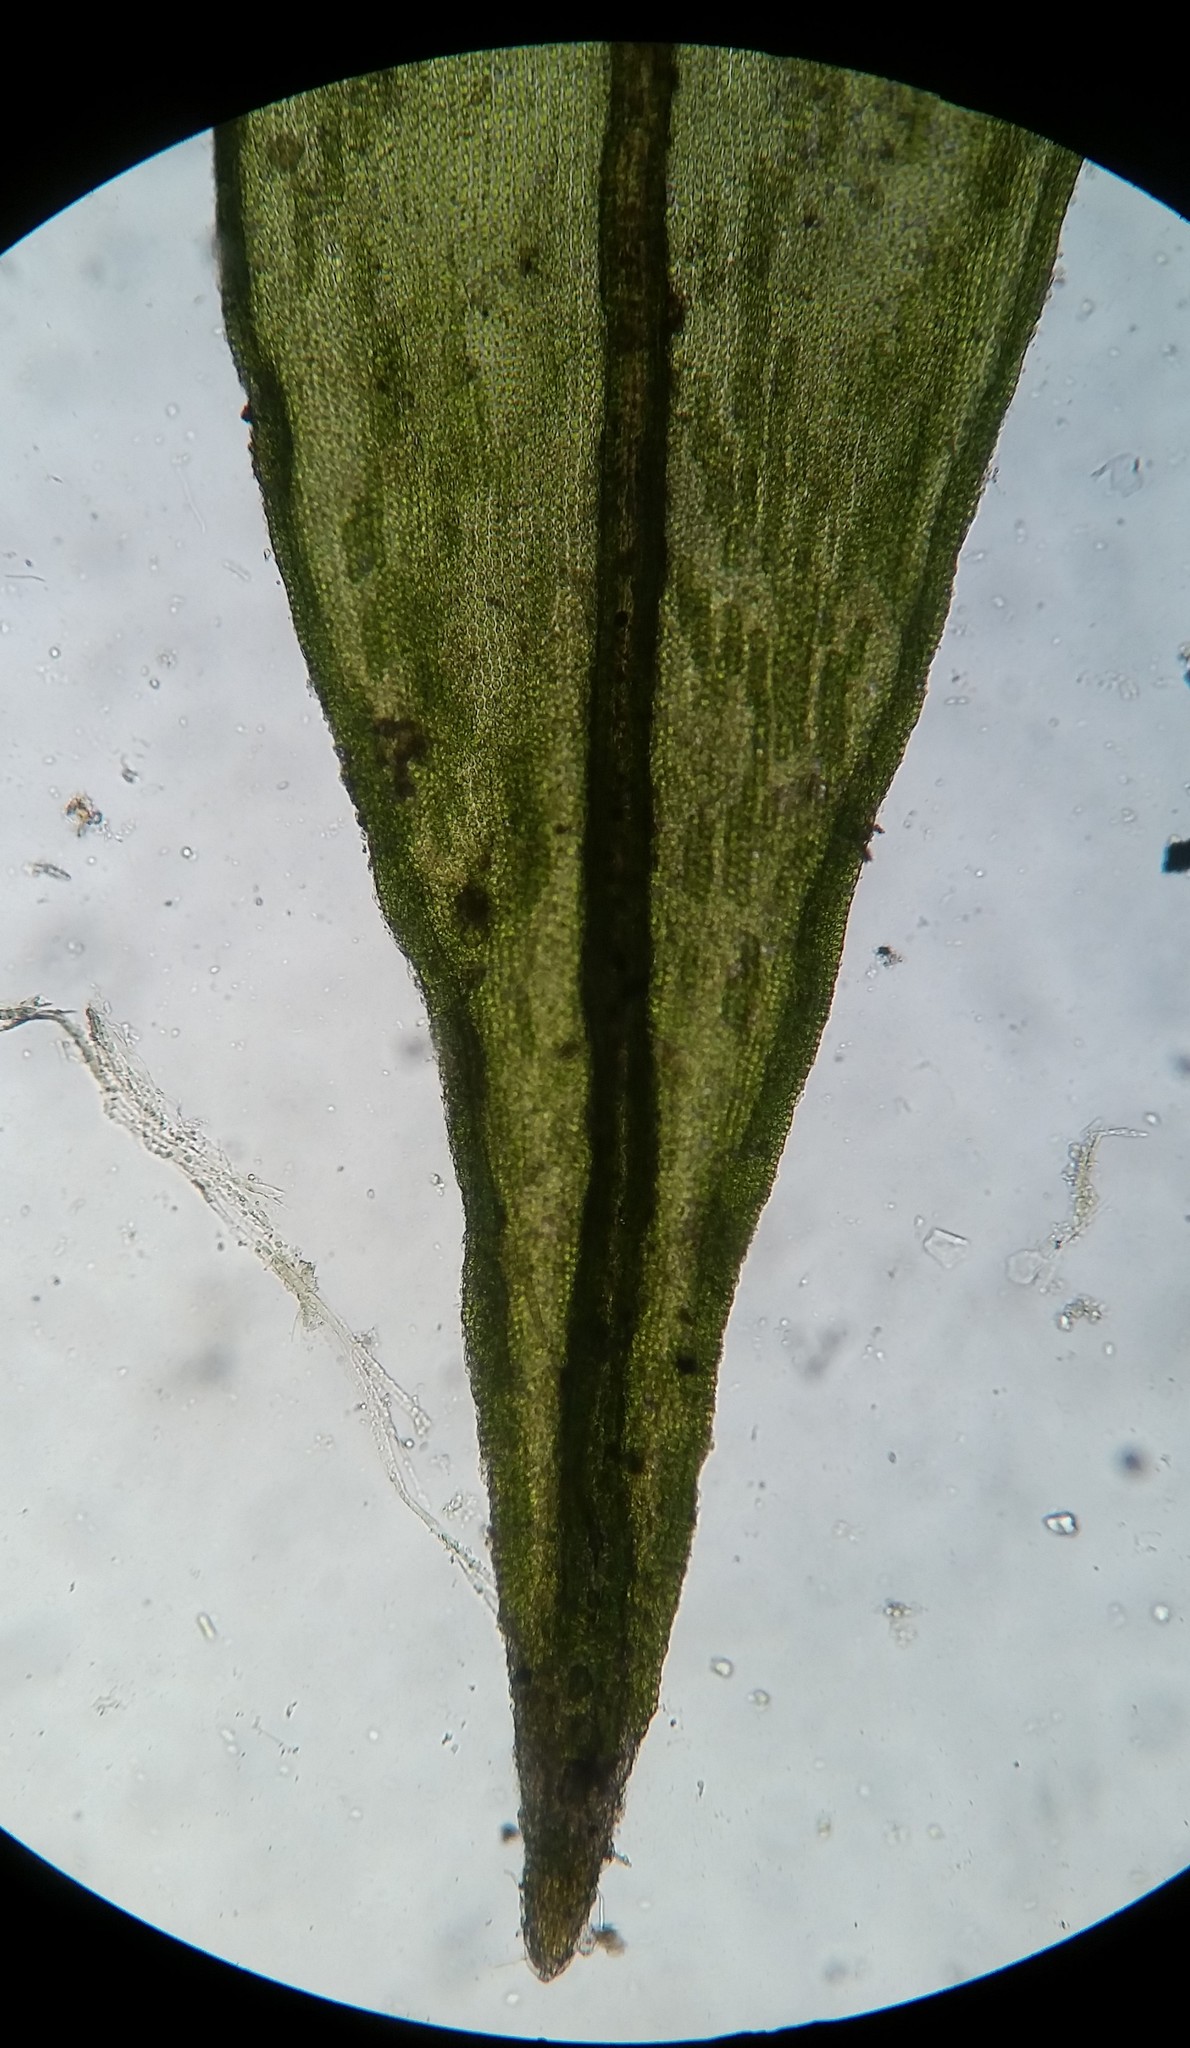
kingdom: Plantae
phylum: Bryophyta
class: Bryopsida
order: Grimmiales
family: Grimmiaceae
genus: Schistidium
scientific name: Schistidium apocarpum
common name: Radiate bloom moss
